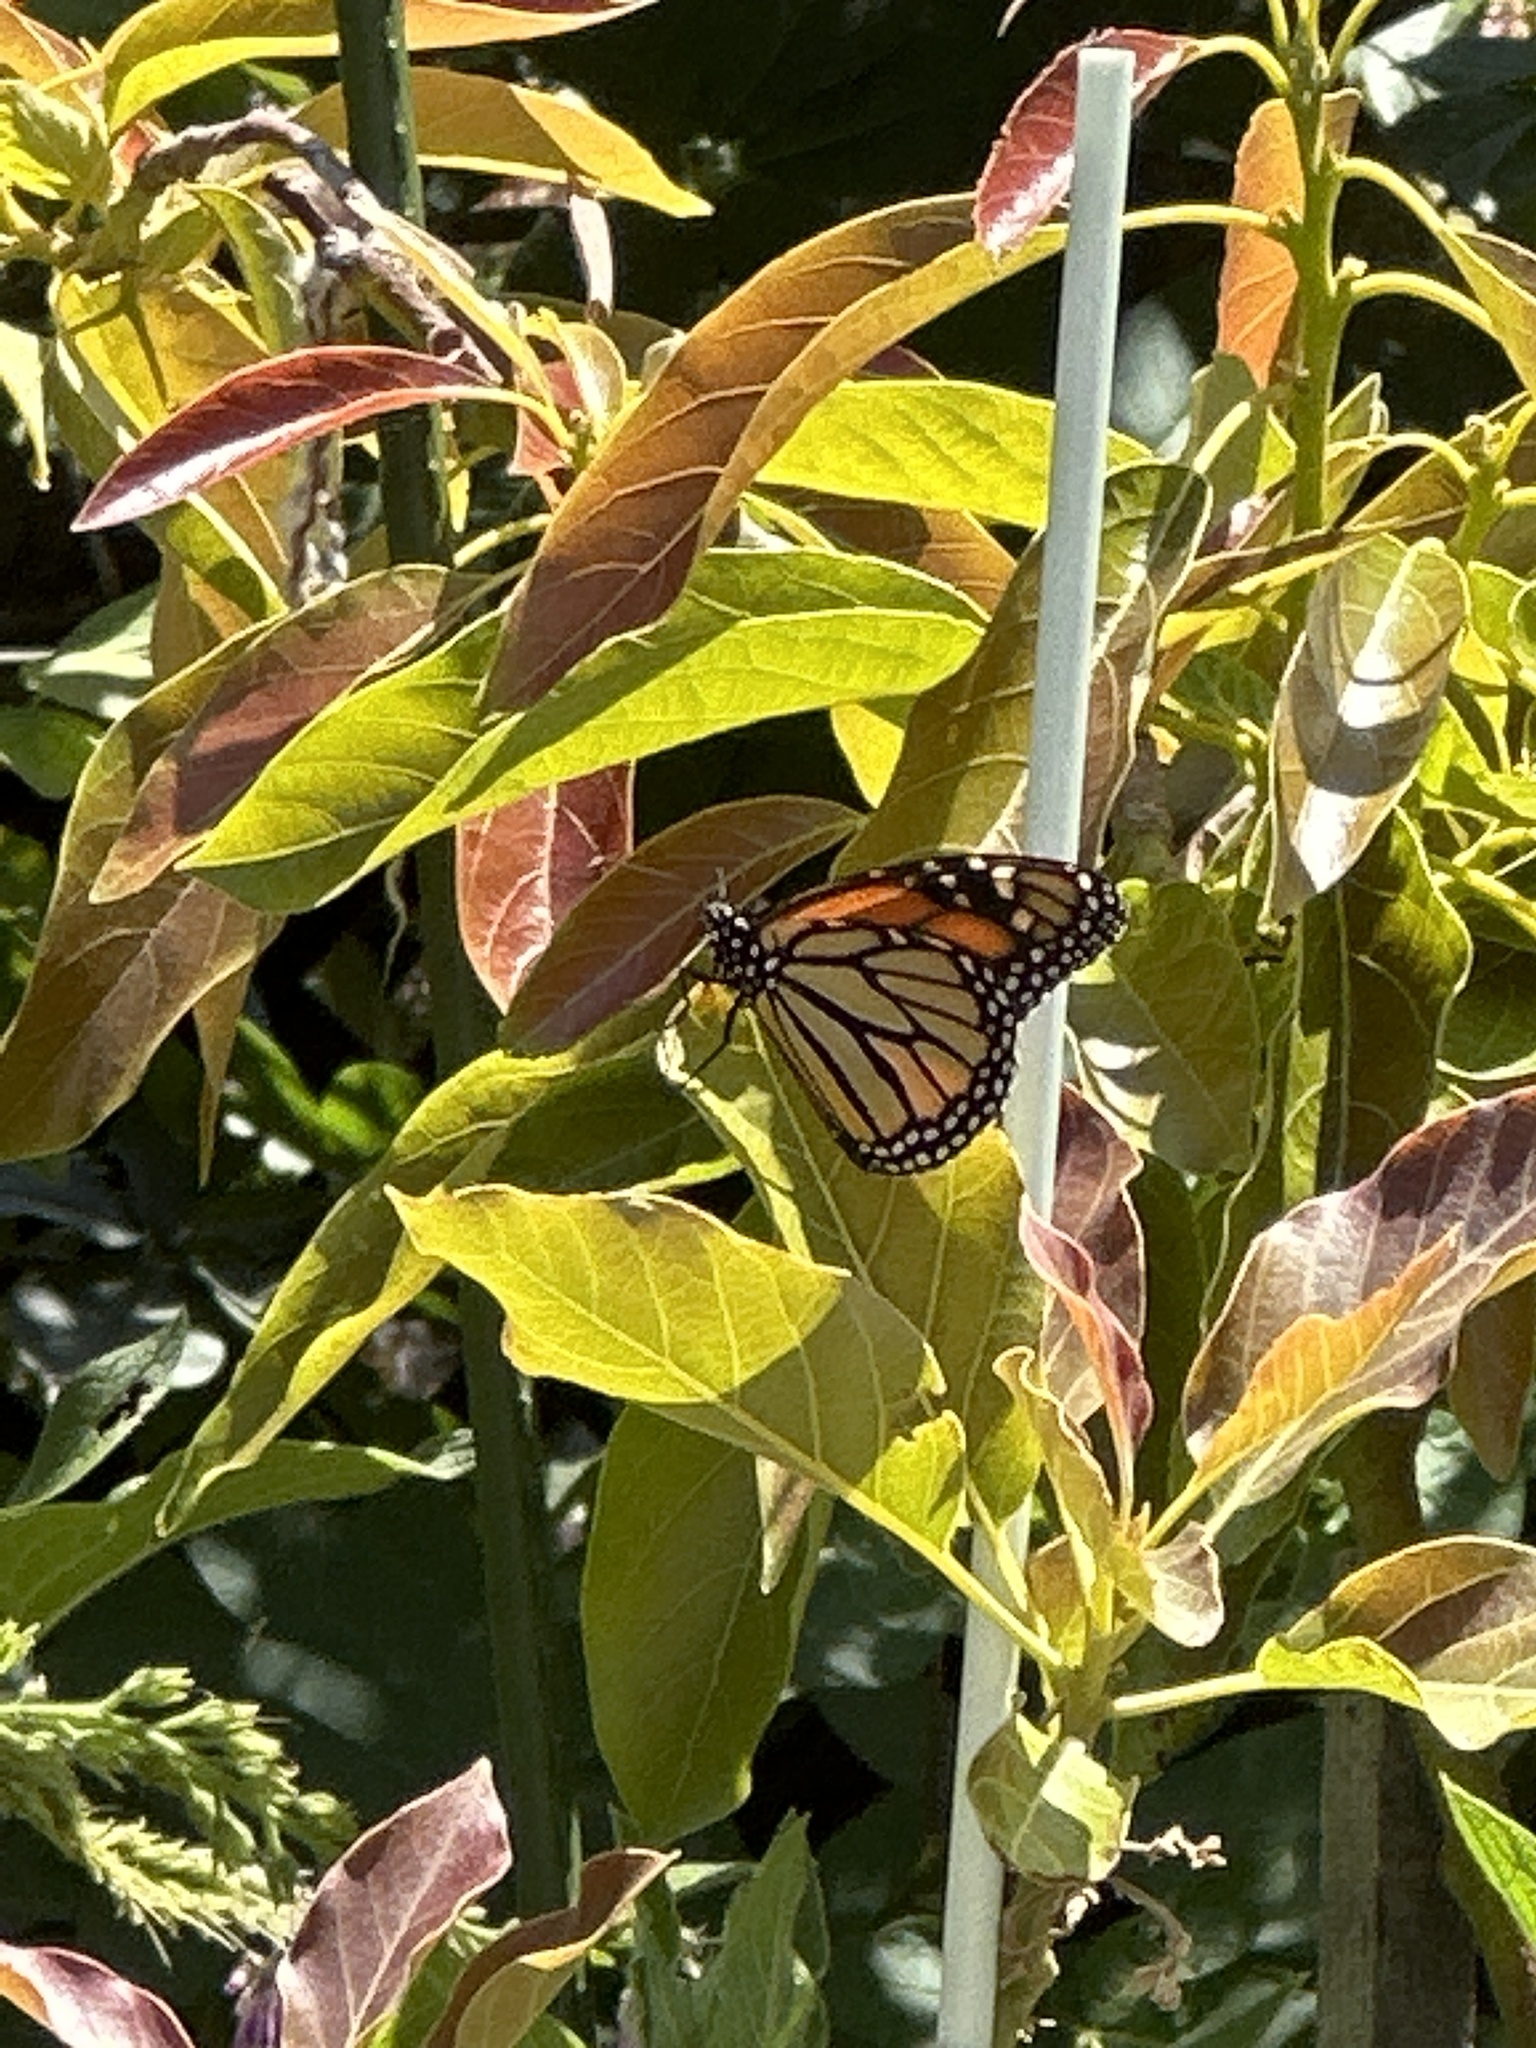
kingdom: Animalia
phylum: Arthropoda
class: Insecta
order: Lepidoptera
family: Nymphalidae
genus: Danaus
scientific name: Danaus plexippus
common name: Monarch
